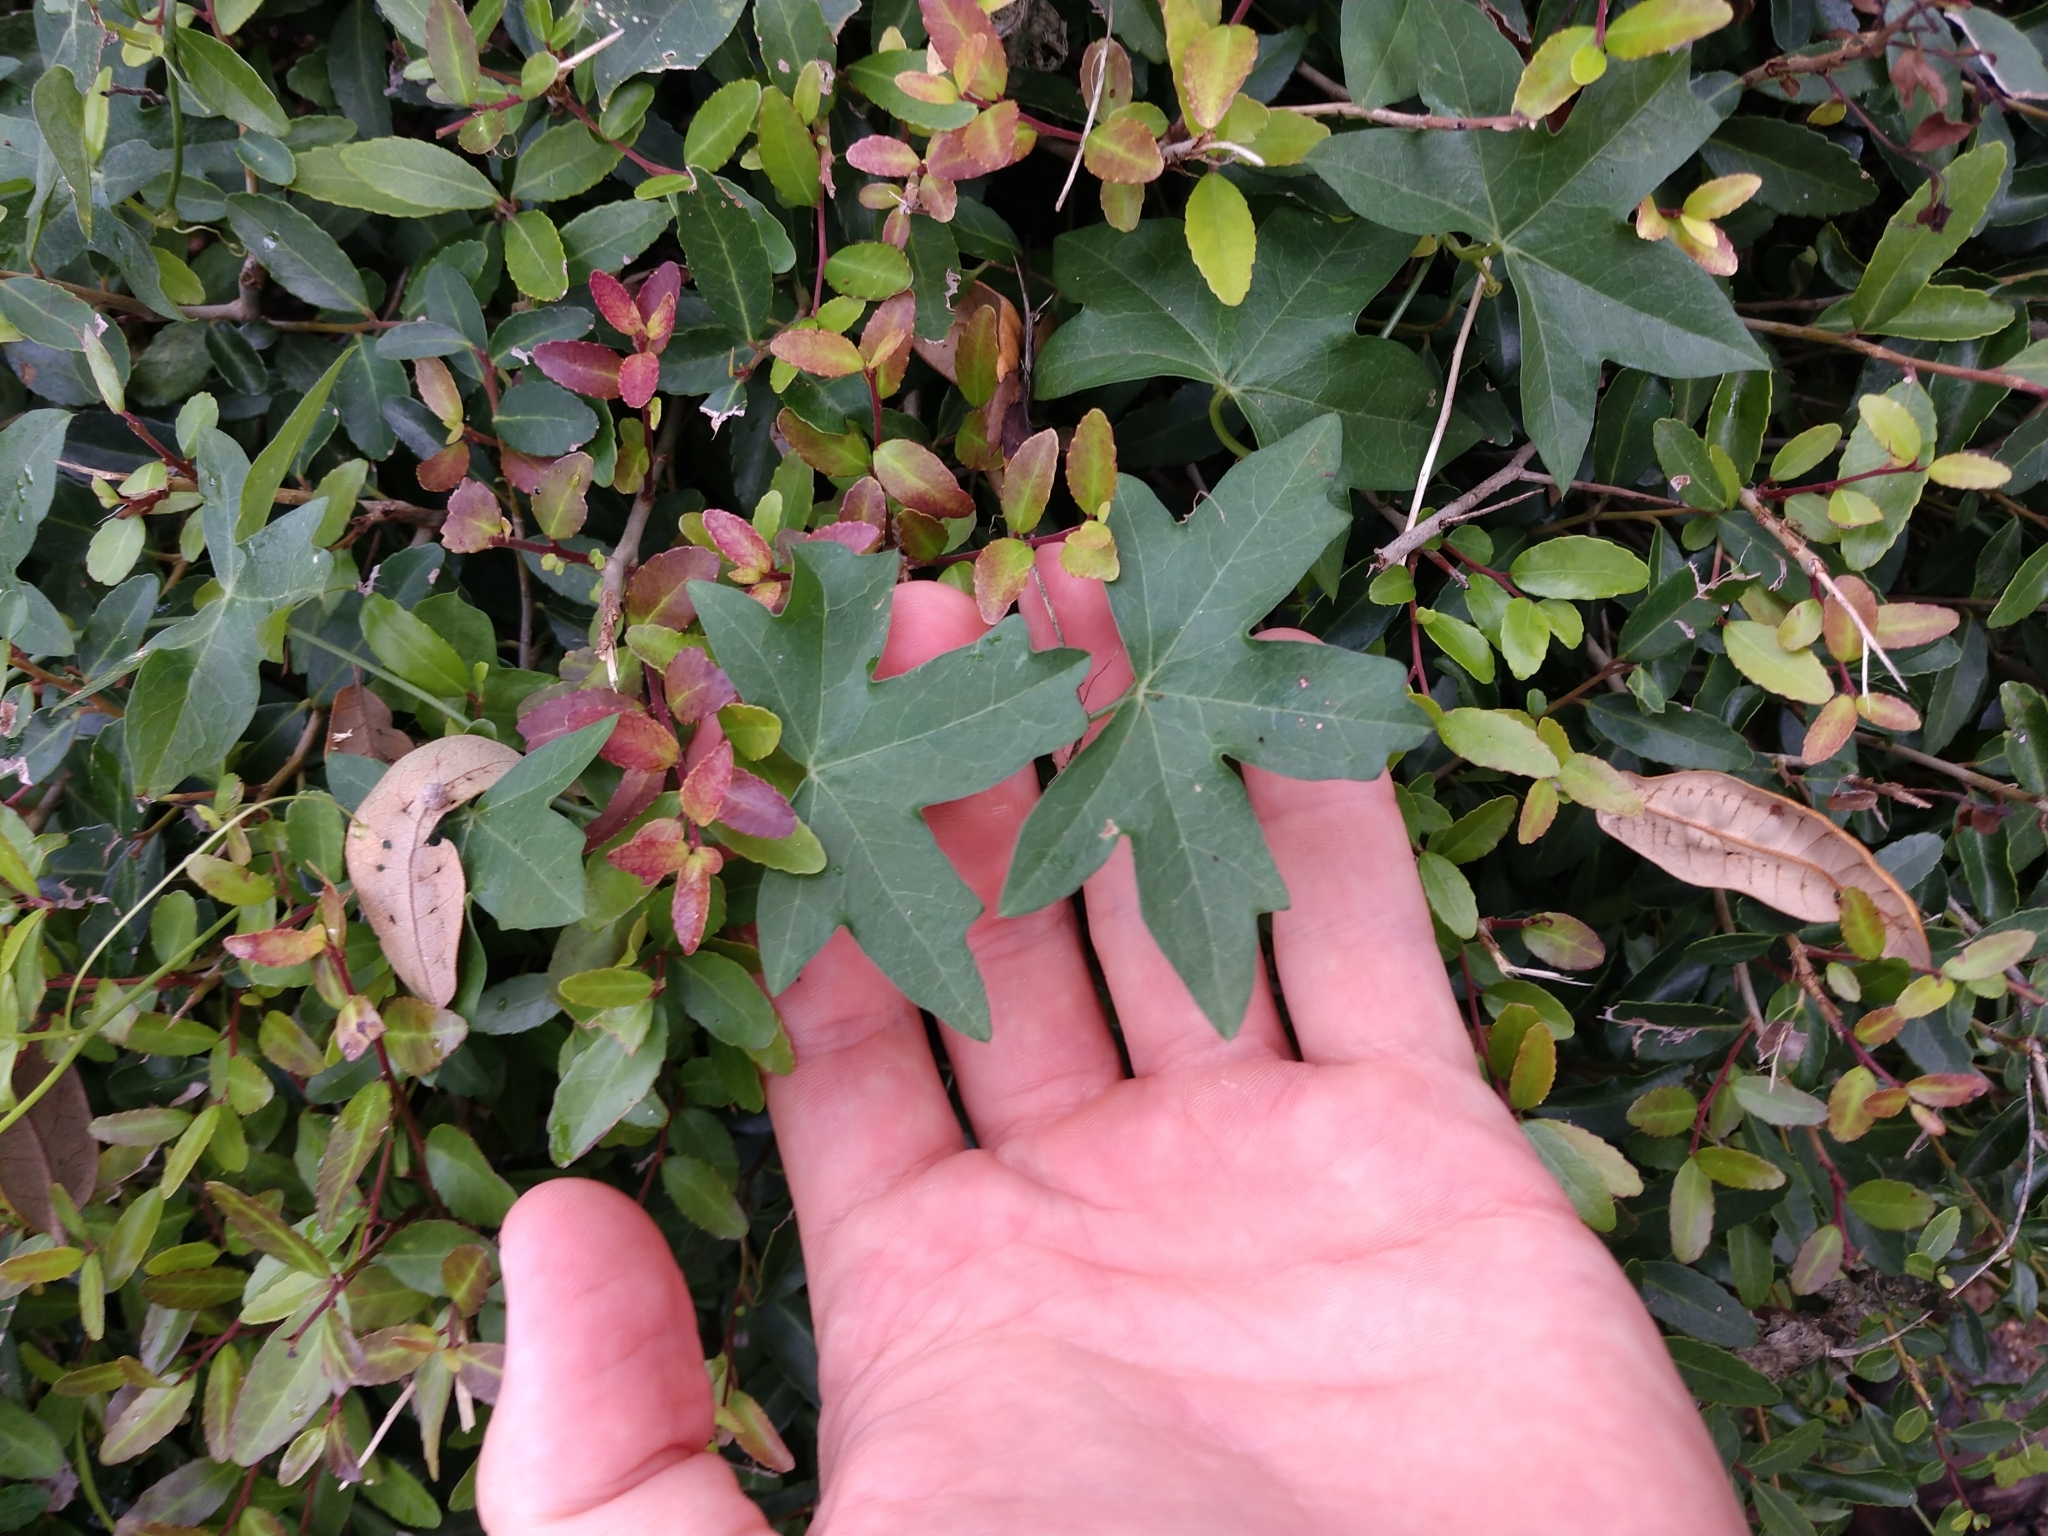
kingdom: Plantae
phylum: Tracheophyta
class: Magnoliopsida
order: Malpighiales
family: Passifloraceae
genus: Passiflora
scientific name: Passiflora tenuiloba
